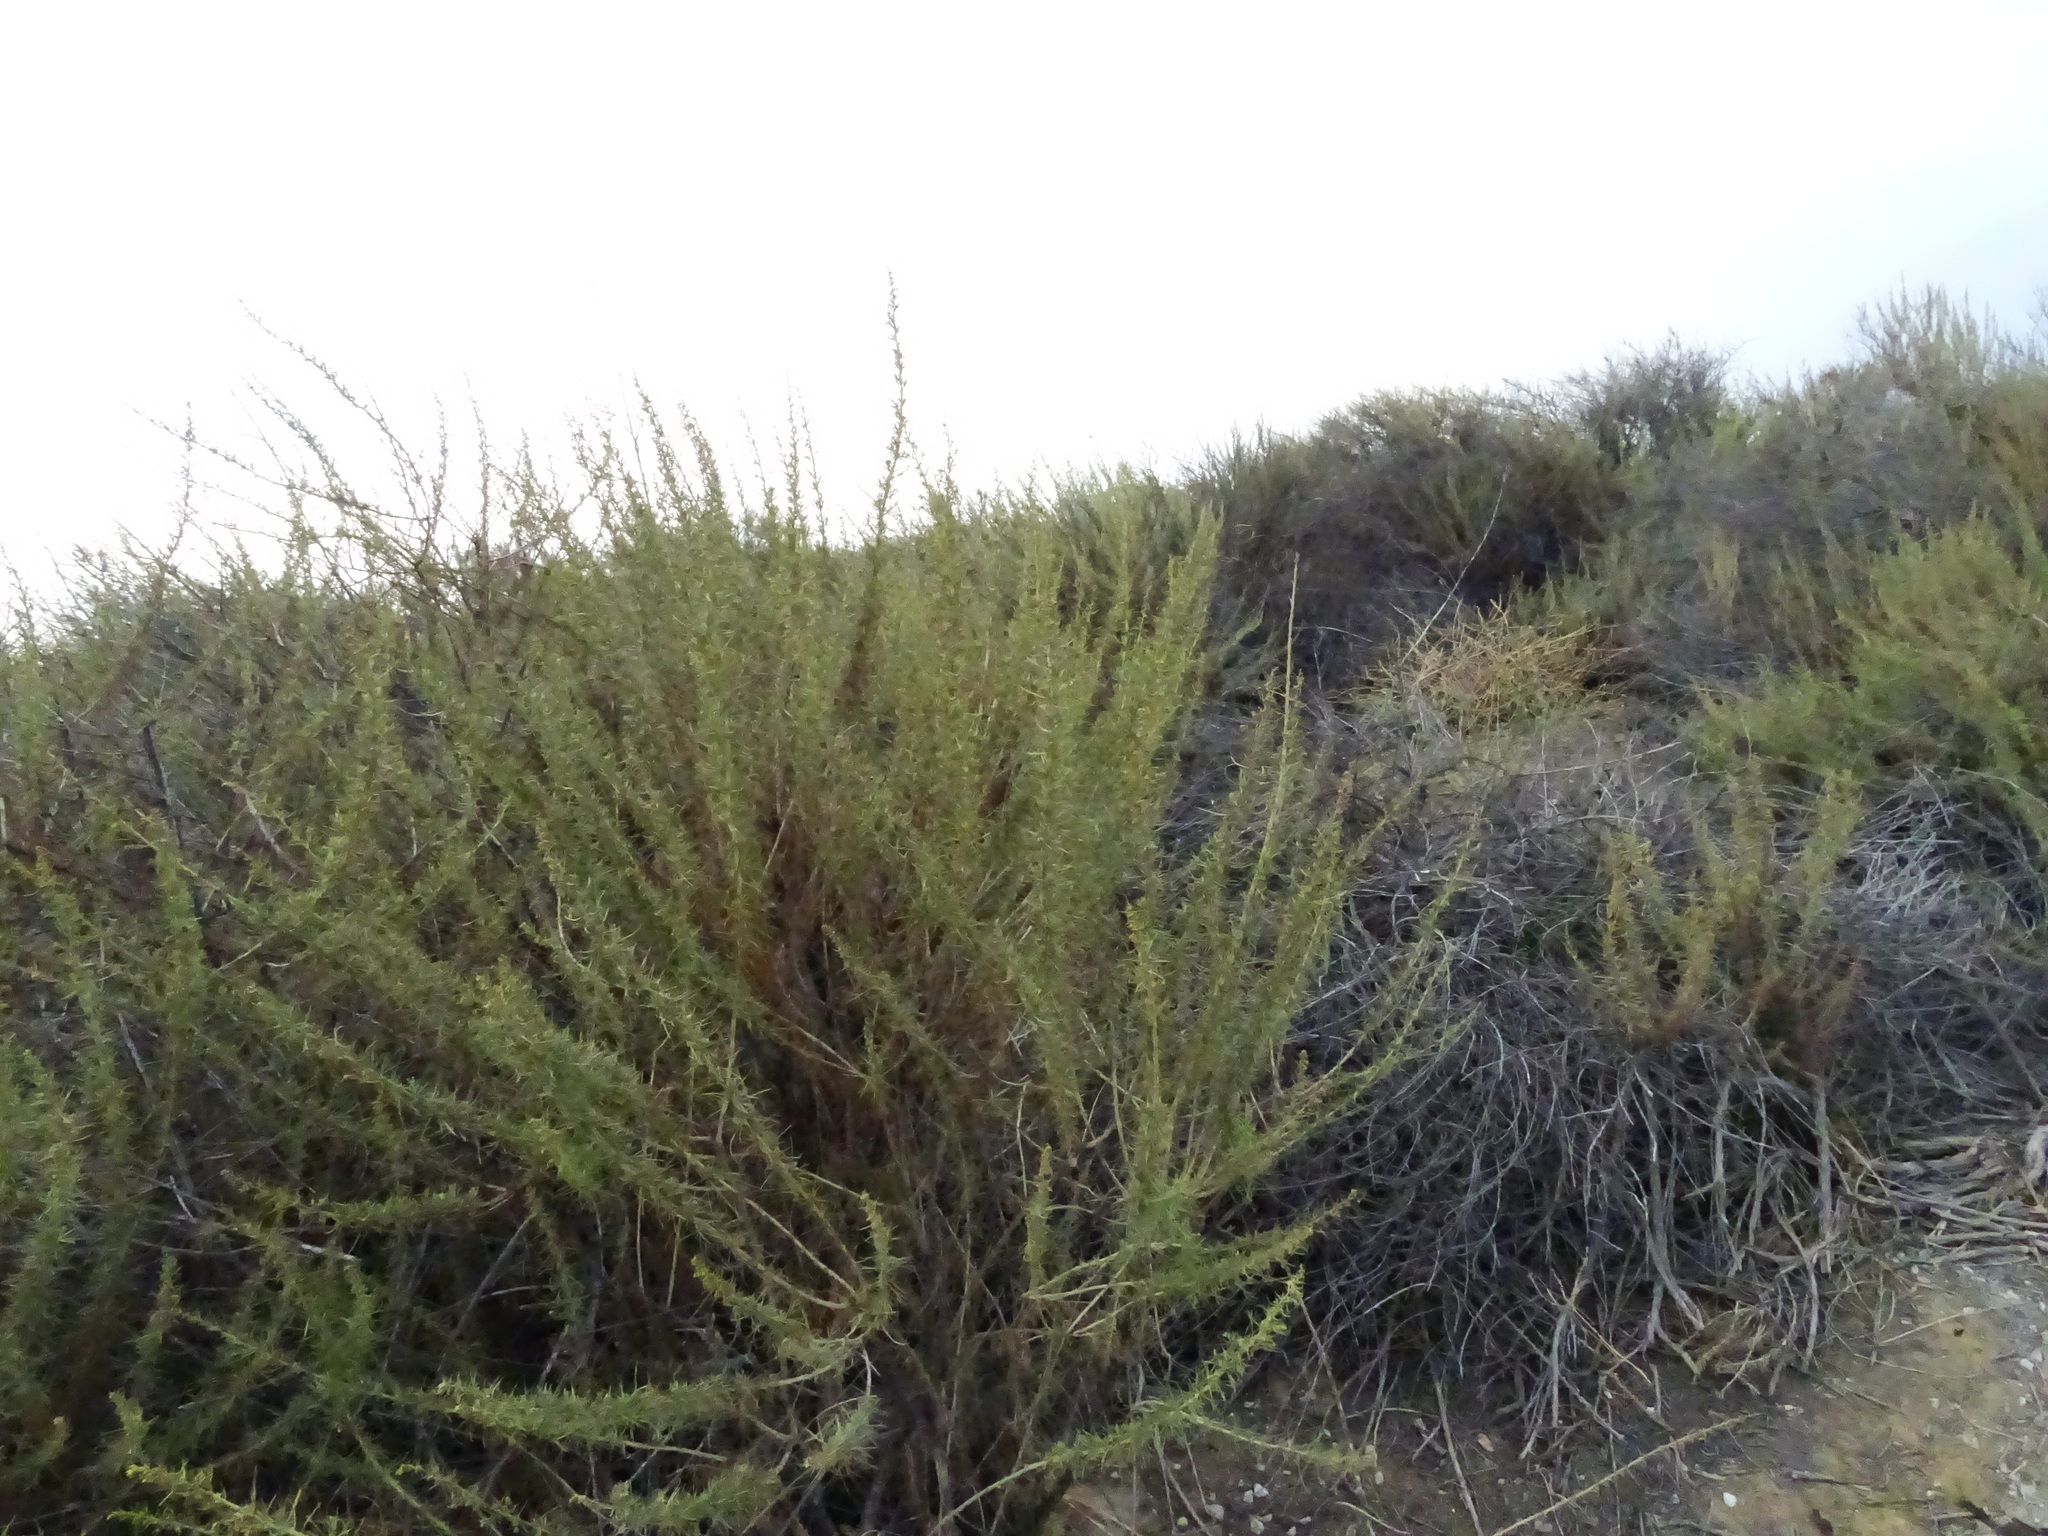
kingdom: Plantae
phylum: Tracheophyta
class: Magnoliopsida
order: Asterales
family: Asteraceae
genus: Artemisia
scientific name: Artemisia californica
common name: California sagebrush
